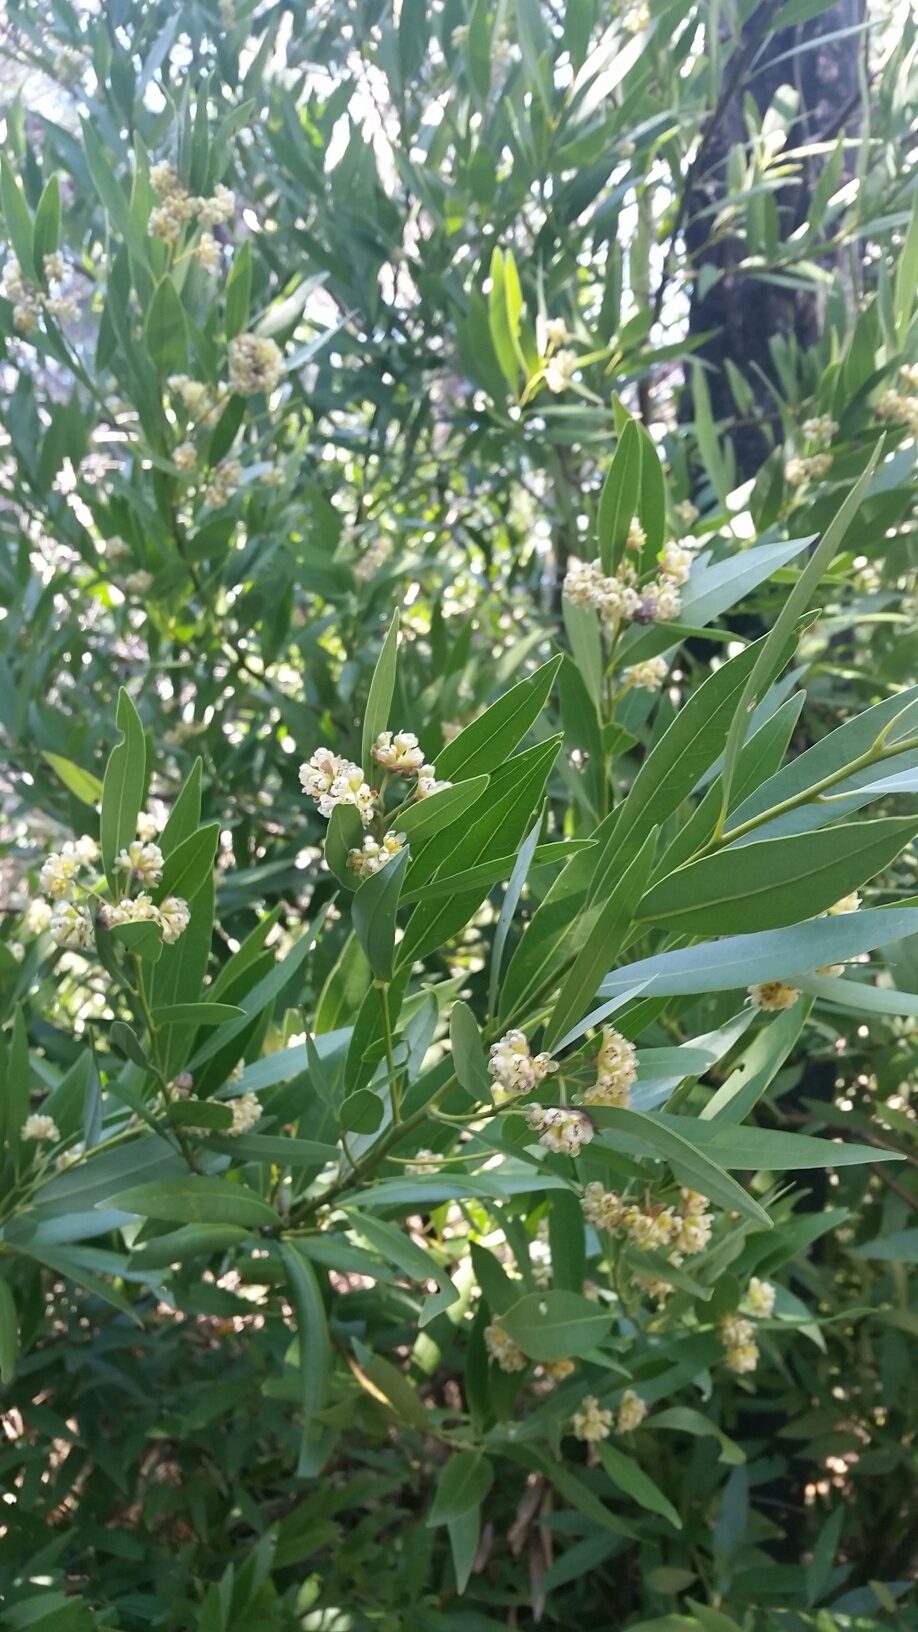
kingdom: Plantae
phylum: Tracheophyta
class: Magnoliopsida
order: Laurales
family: Lauraceae
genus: Umbellularia
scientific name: Umbellularia californica
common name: California bay
